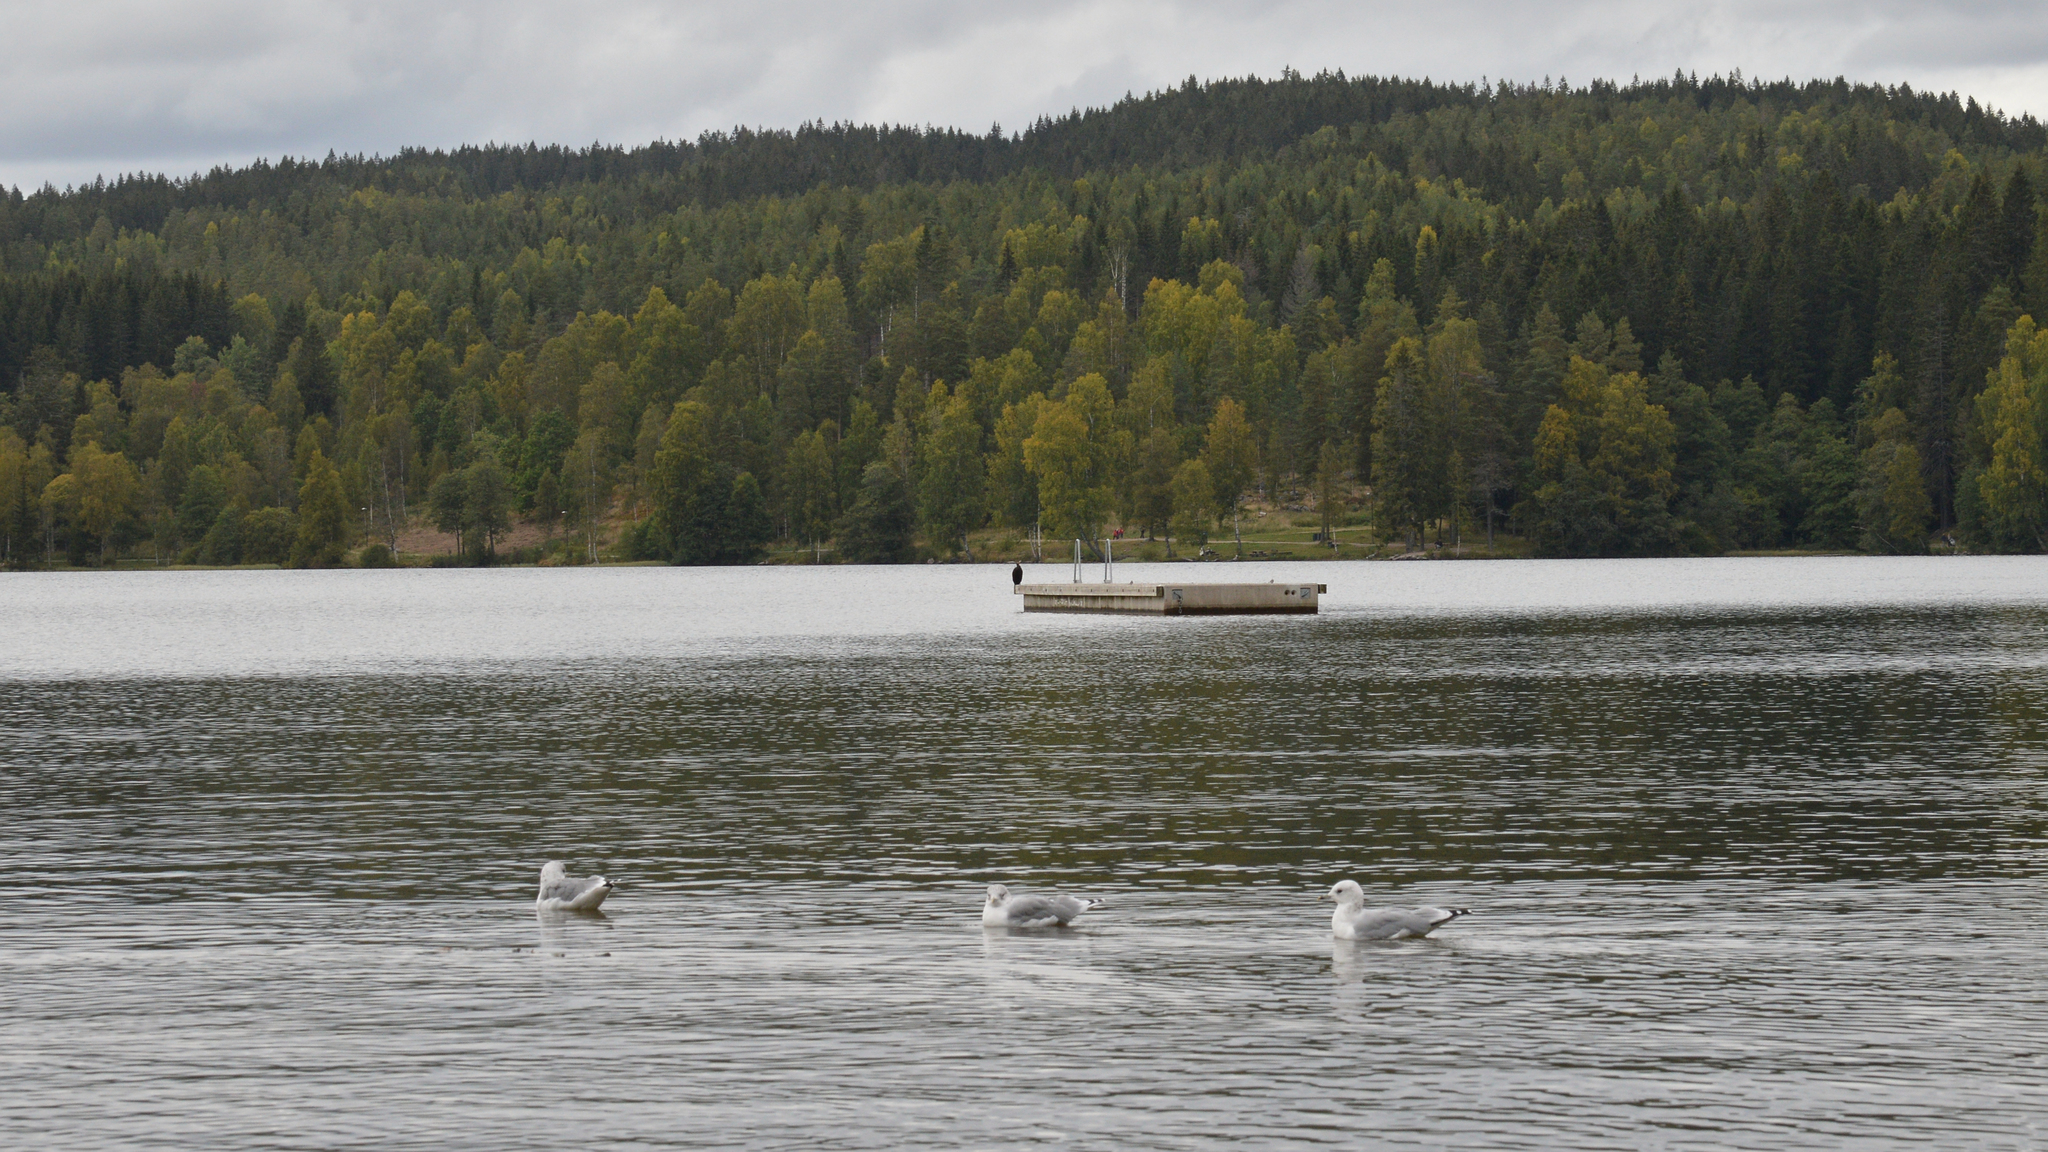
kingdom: Animalia
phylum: Chordata
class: Aves
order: Charadriiformes
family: Laridae
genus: Larus
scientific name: Larus canus
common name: Mew gull
